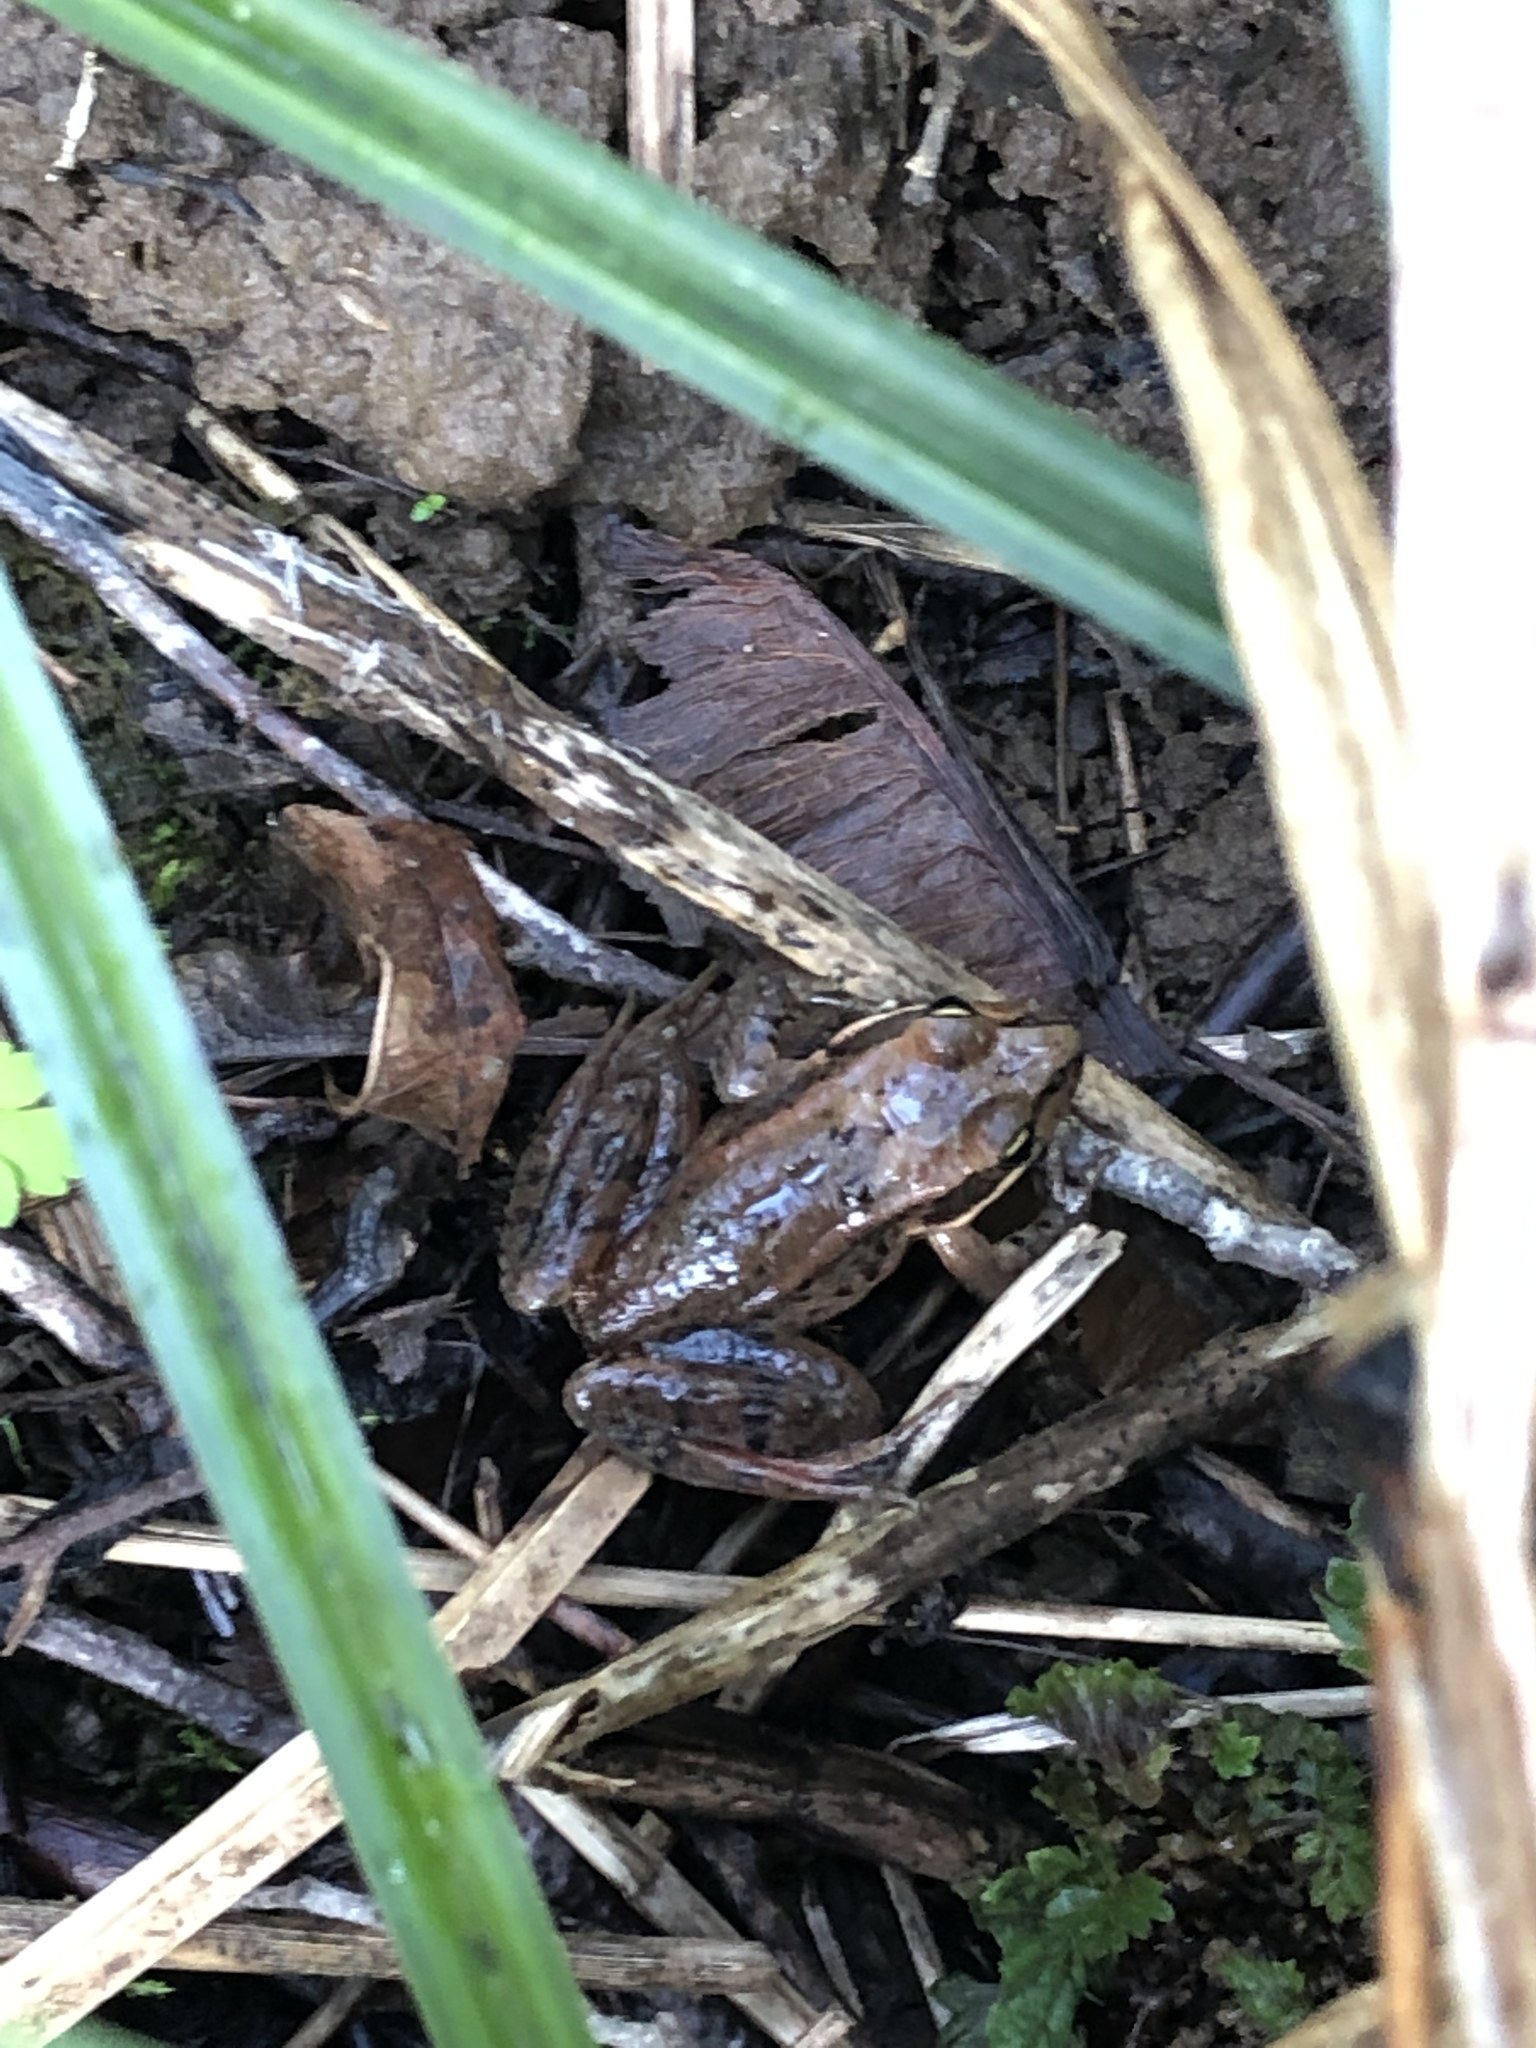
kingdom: Animalia
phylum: Chordata
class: Amphibia
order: Anura
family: Ranidae
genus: Rana
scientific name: Rana aurora
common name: Red-legged frog
